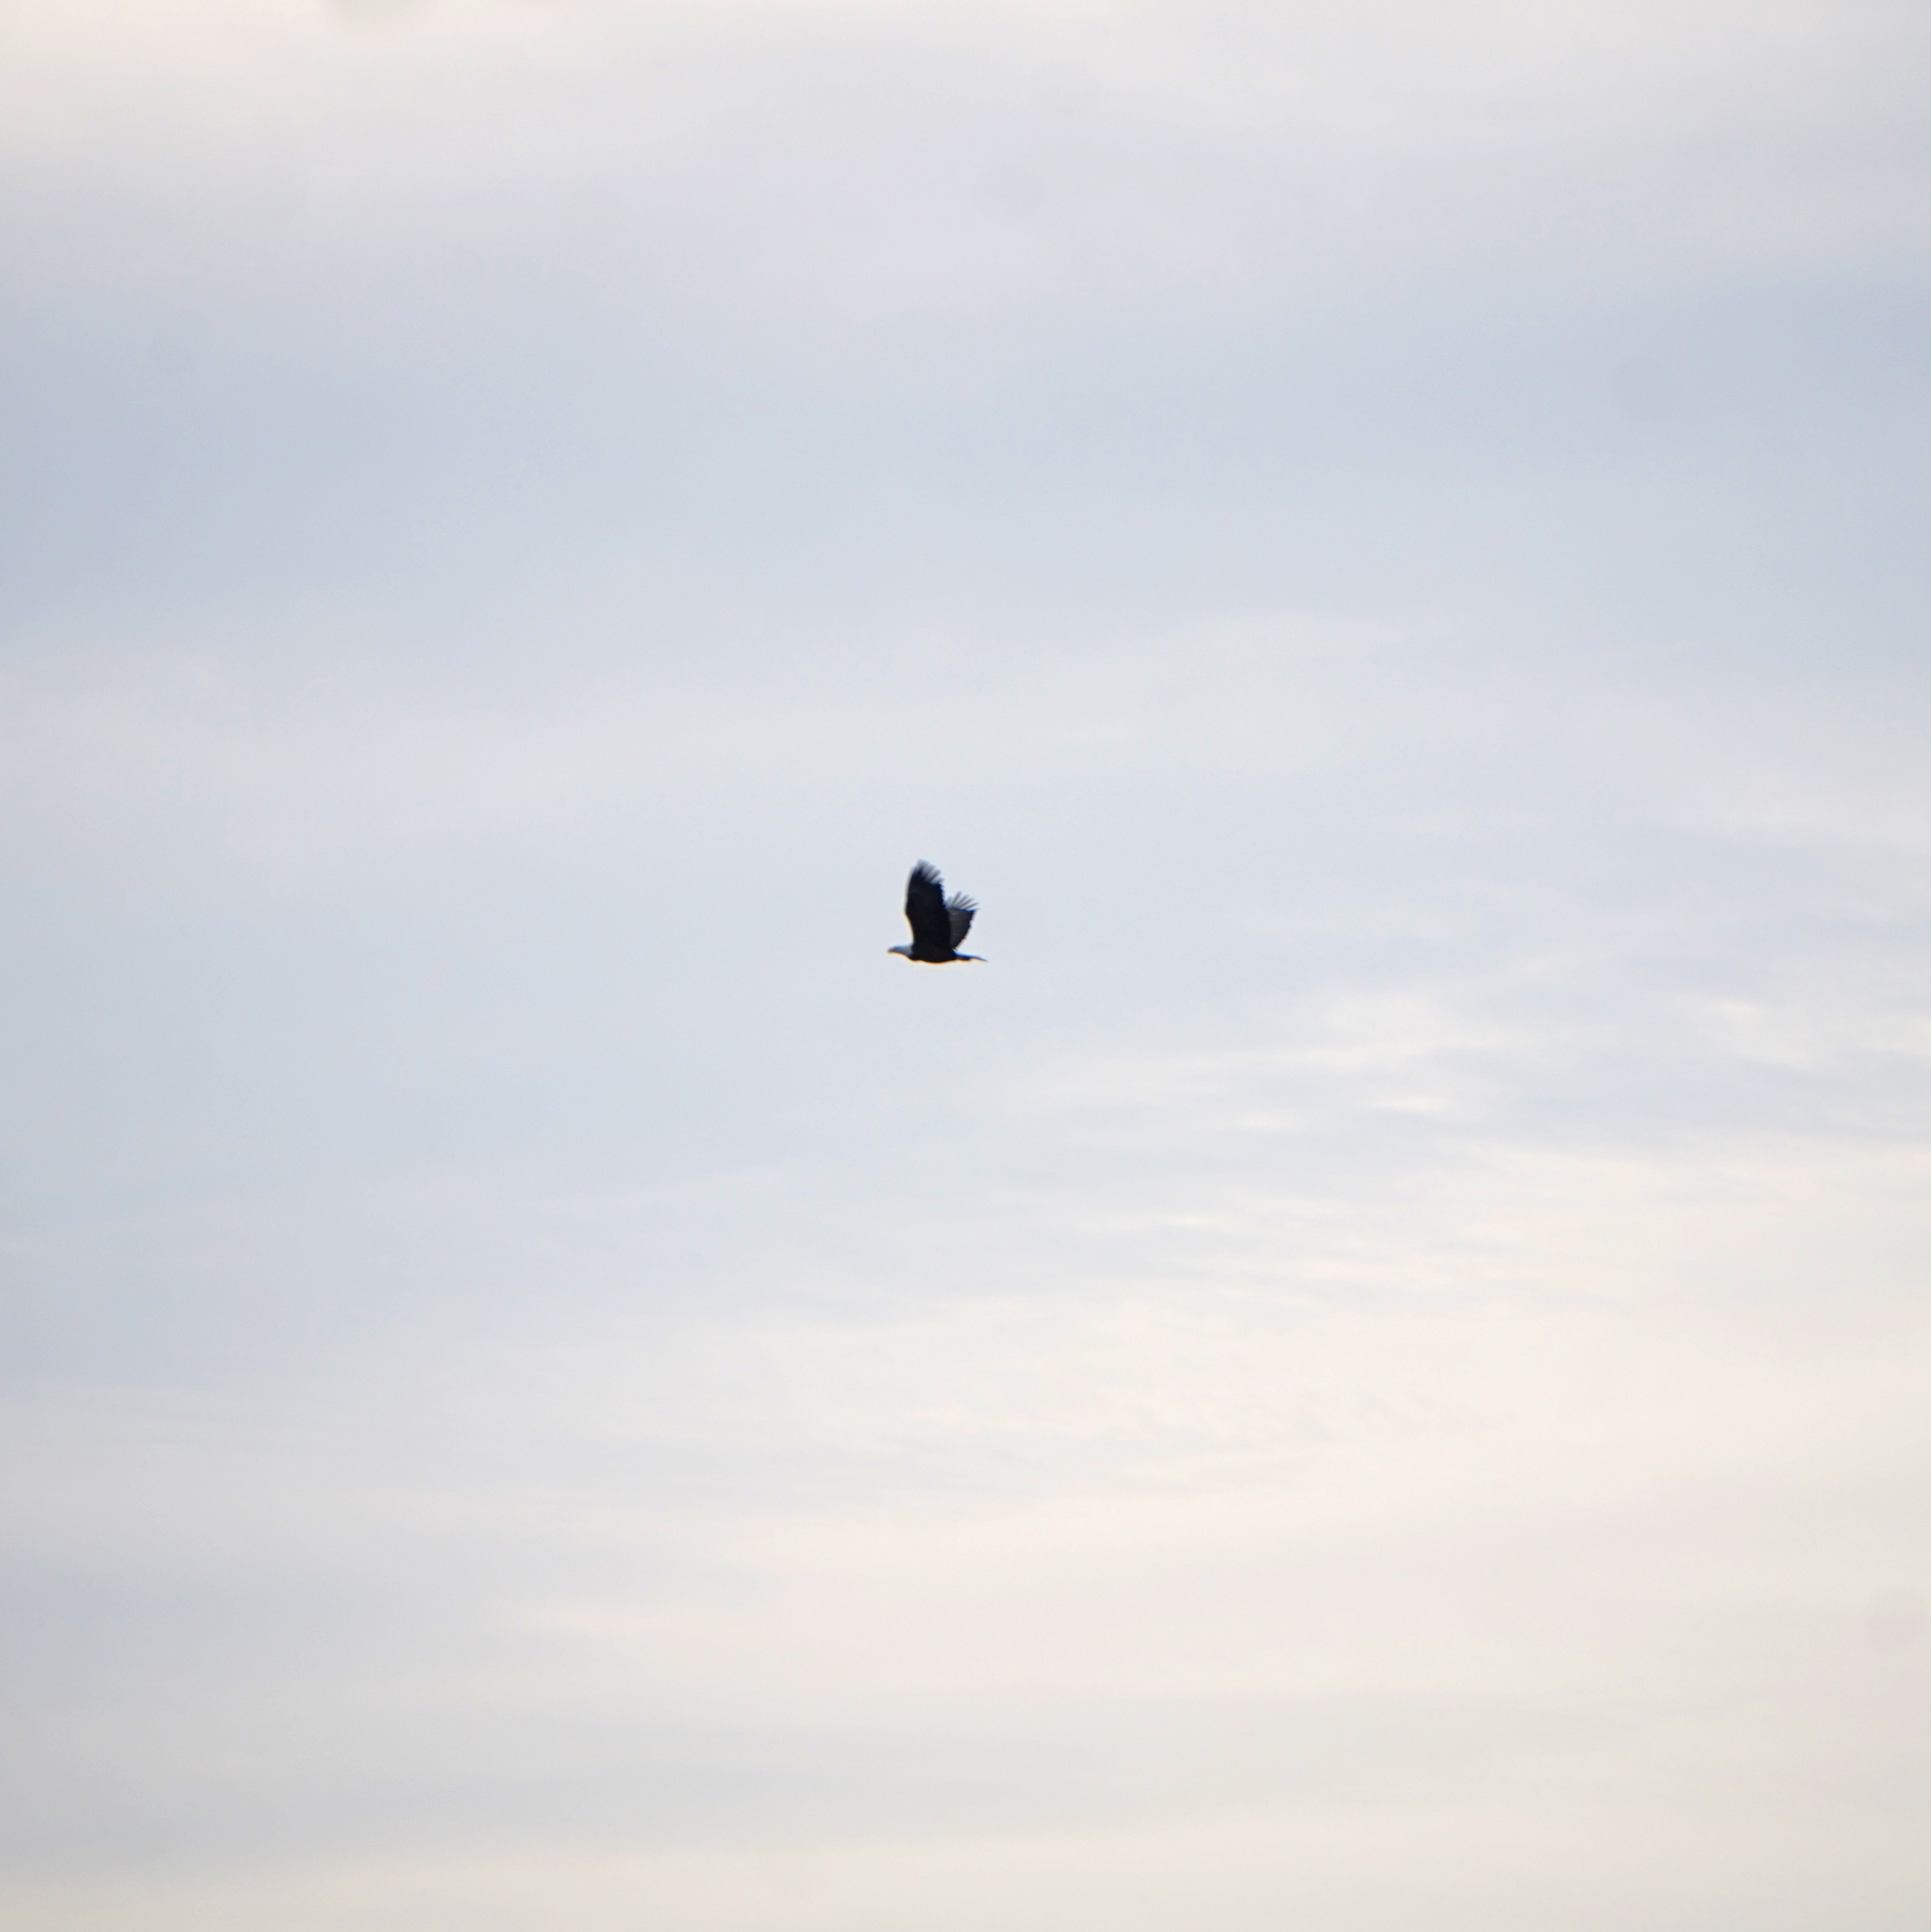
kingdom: Animalia
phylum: Chordata
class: Aves
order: Accipitriformes
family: Accipitridae
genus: Haliaeetus
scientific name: Haliaeetus leucocephalus
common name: Bald eagle
